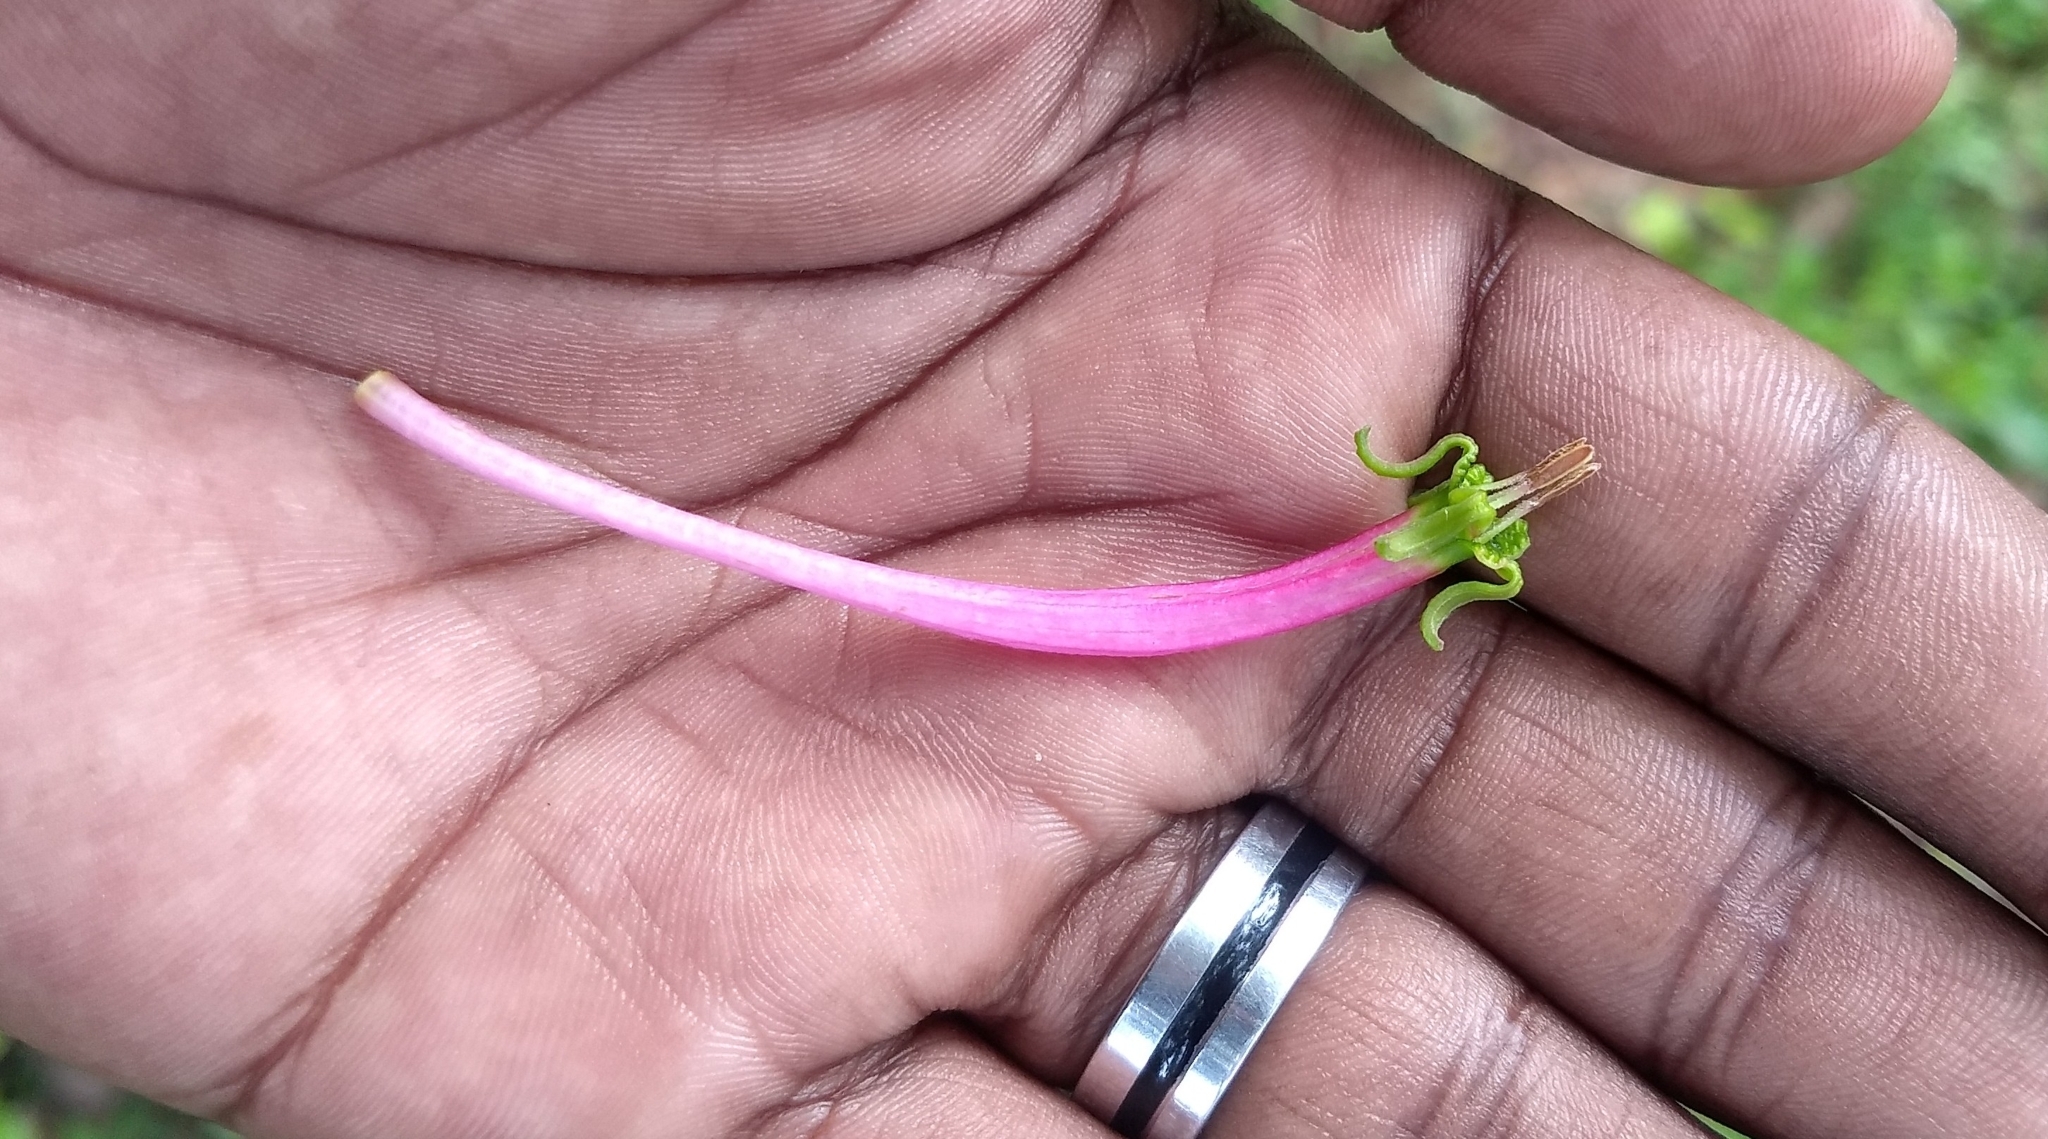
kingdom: Plantae
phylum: Tracheophyta
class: Magnoliopsida
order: Santalales
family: Loranthaceae
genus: Dendrophthoe
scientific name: Dendrophthoe falcata
